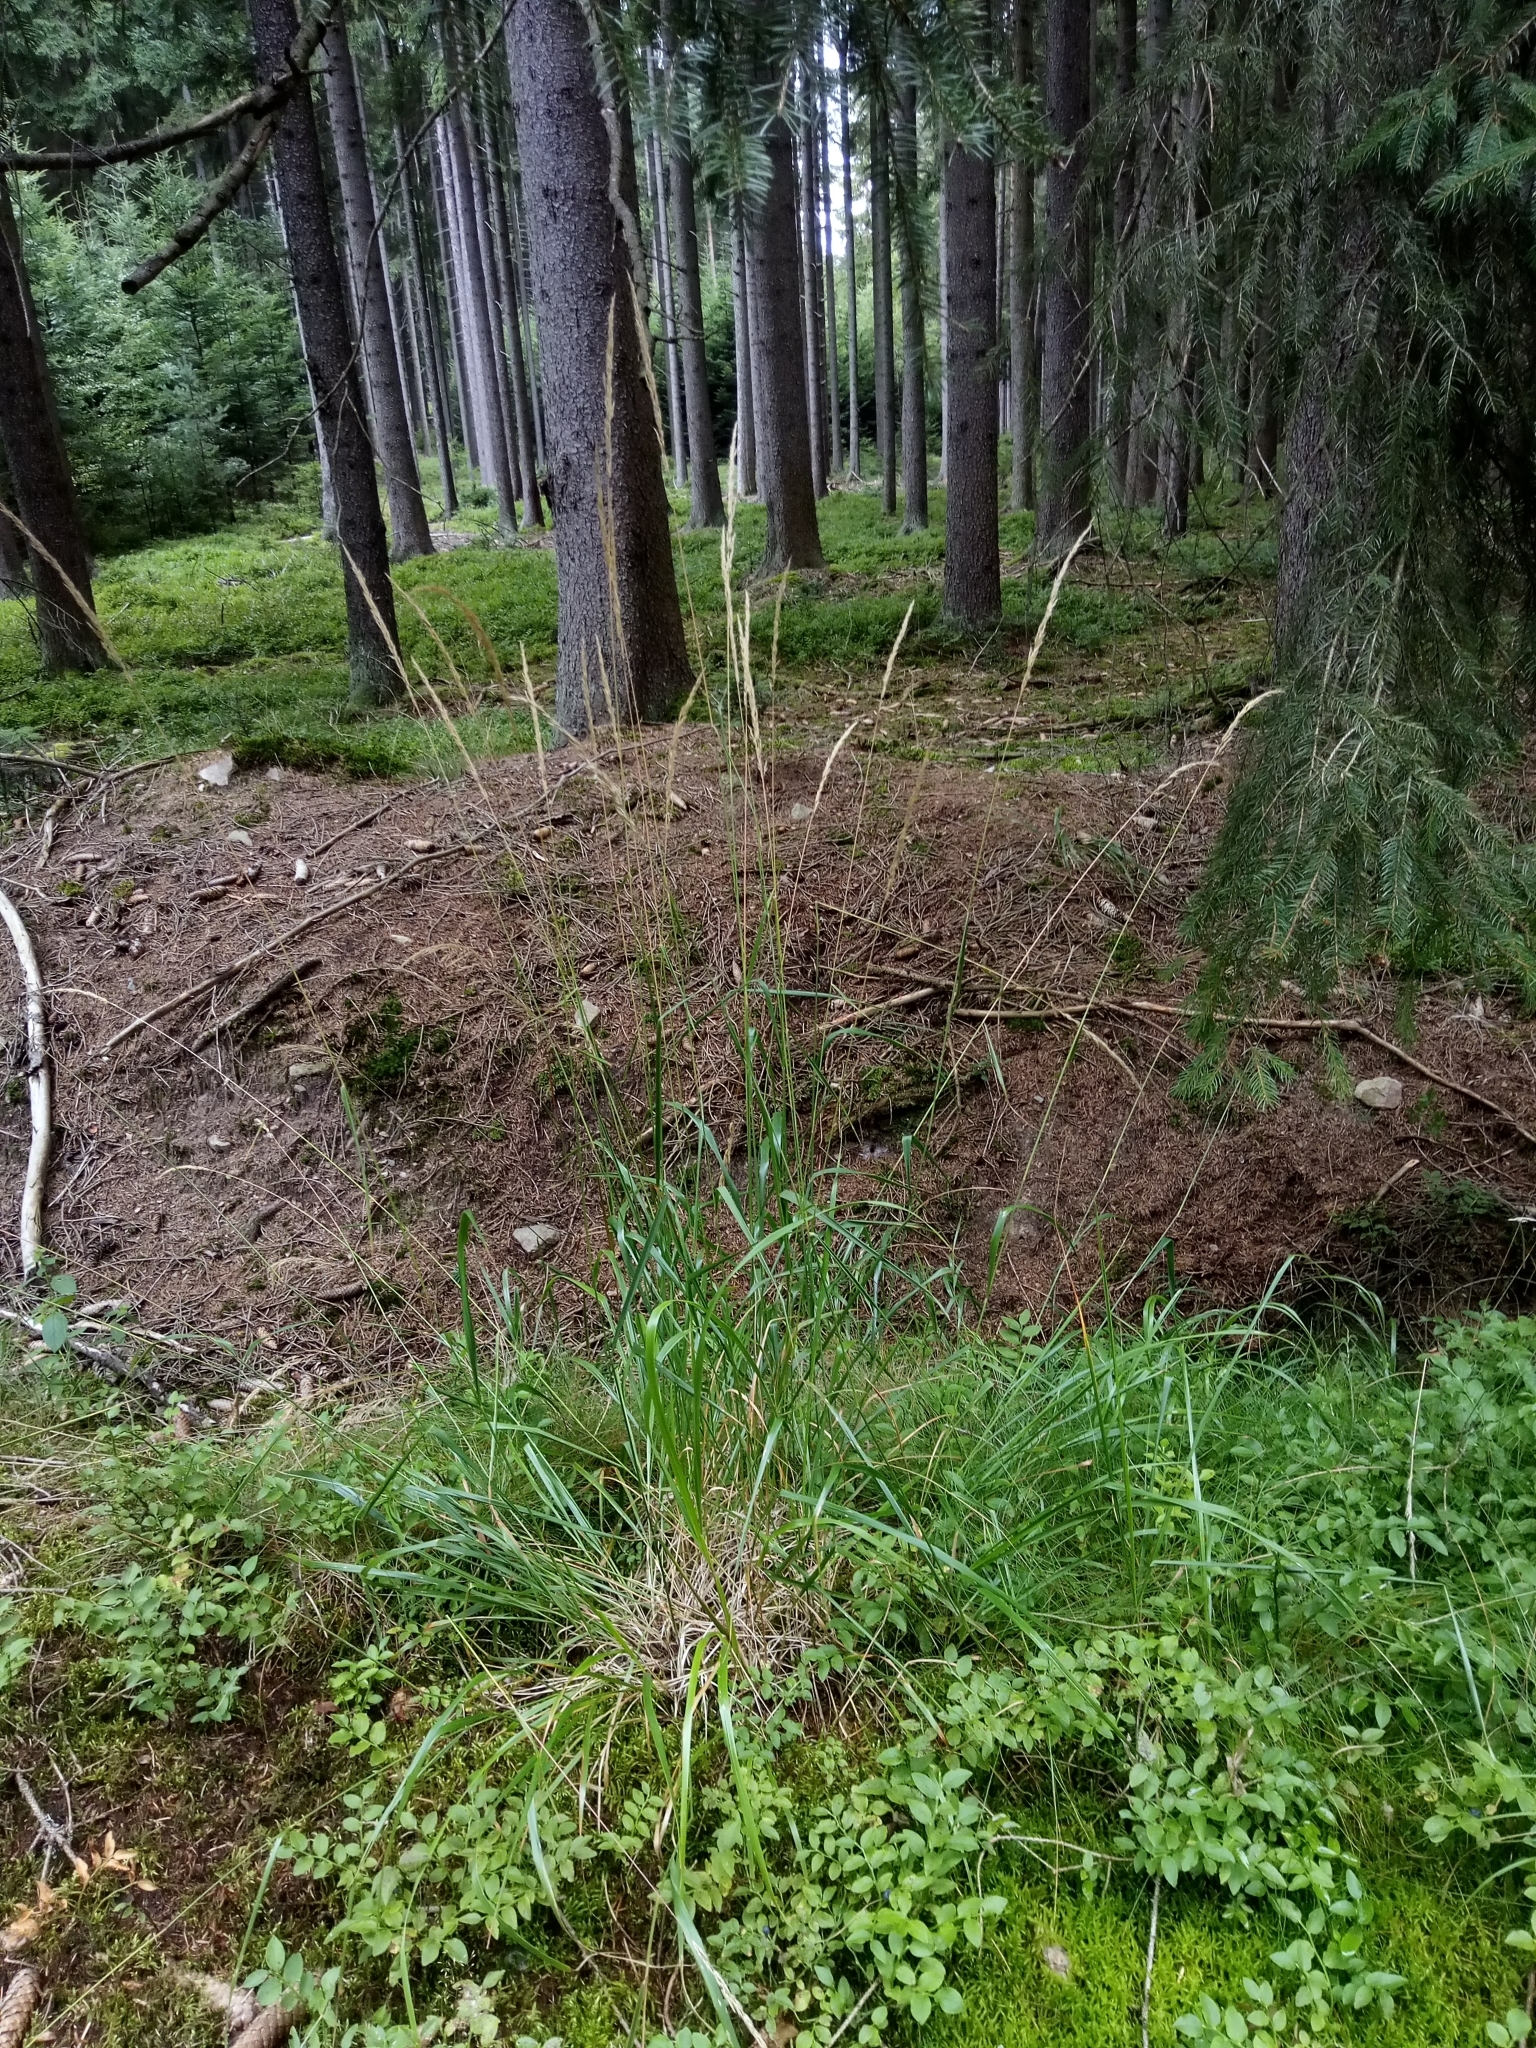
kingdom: Plantae
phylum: Tracheophyta
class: Liliopsida
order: Poales
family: Poaceae
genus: Calamagrostis
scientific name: Calamagrostis arundinacea
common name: Metskastik
